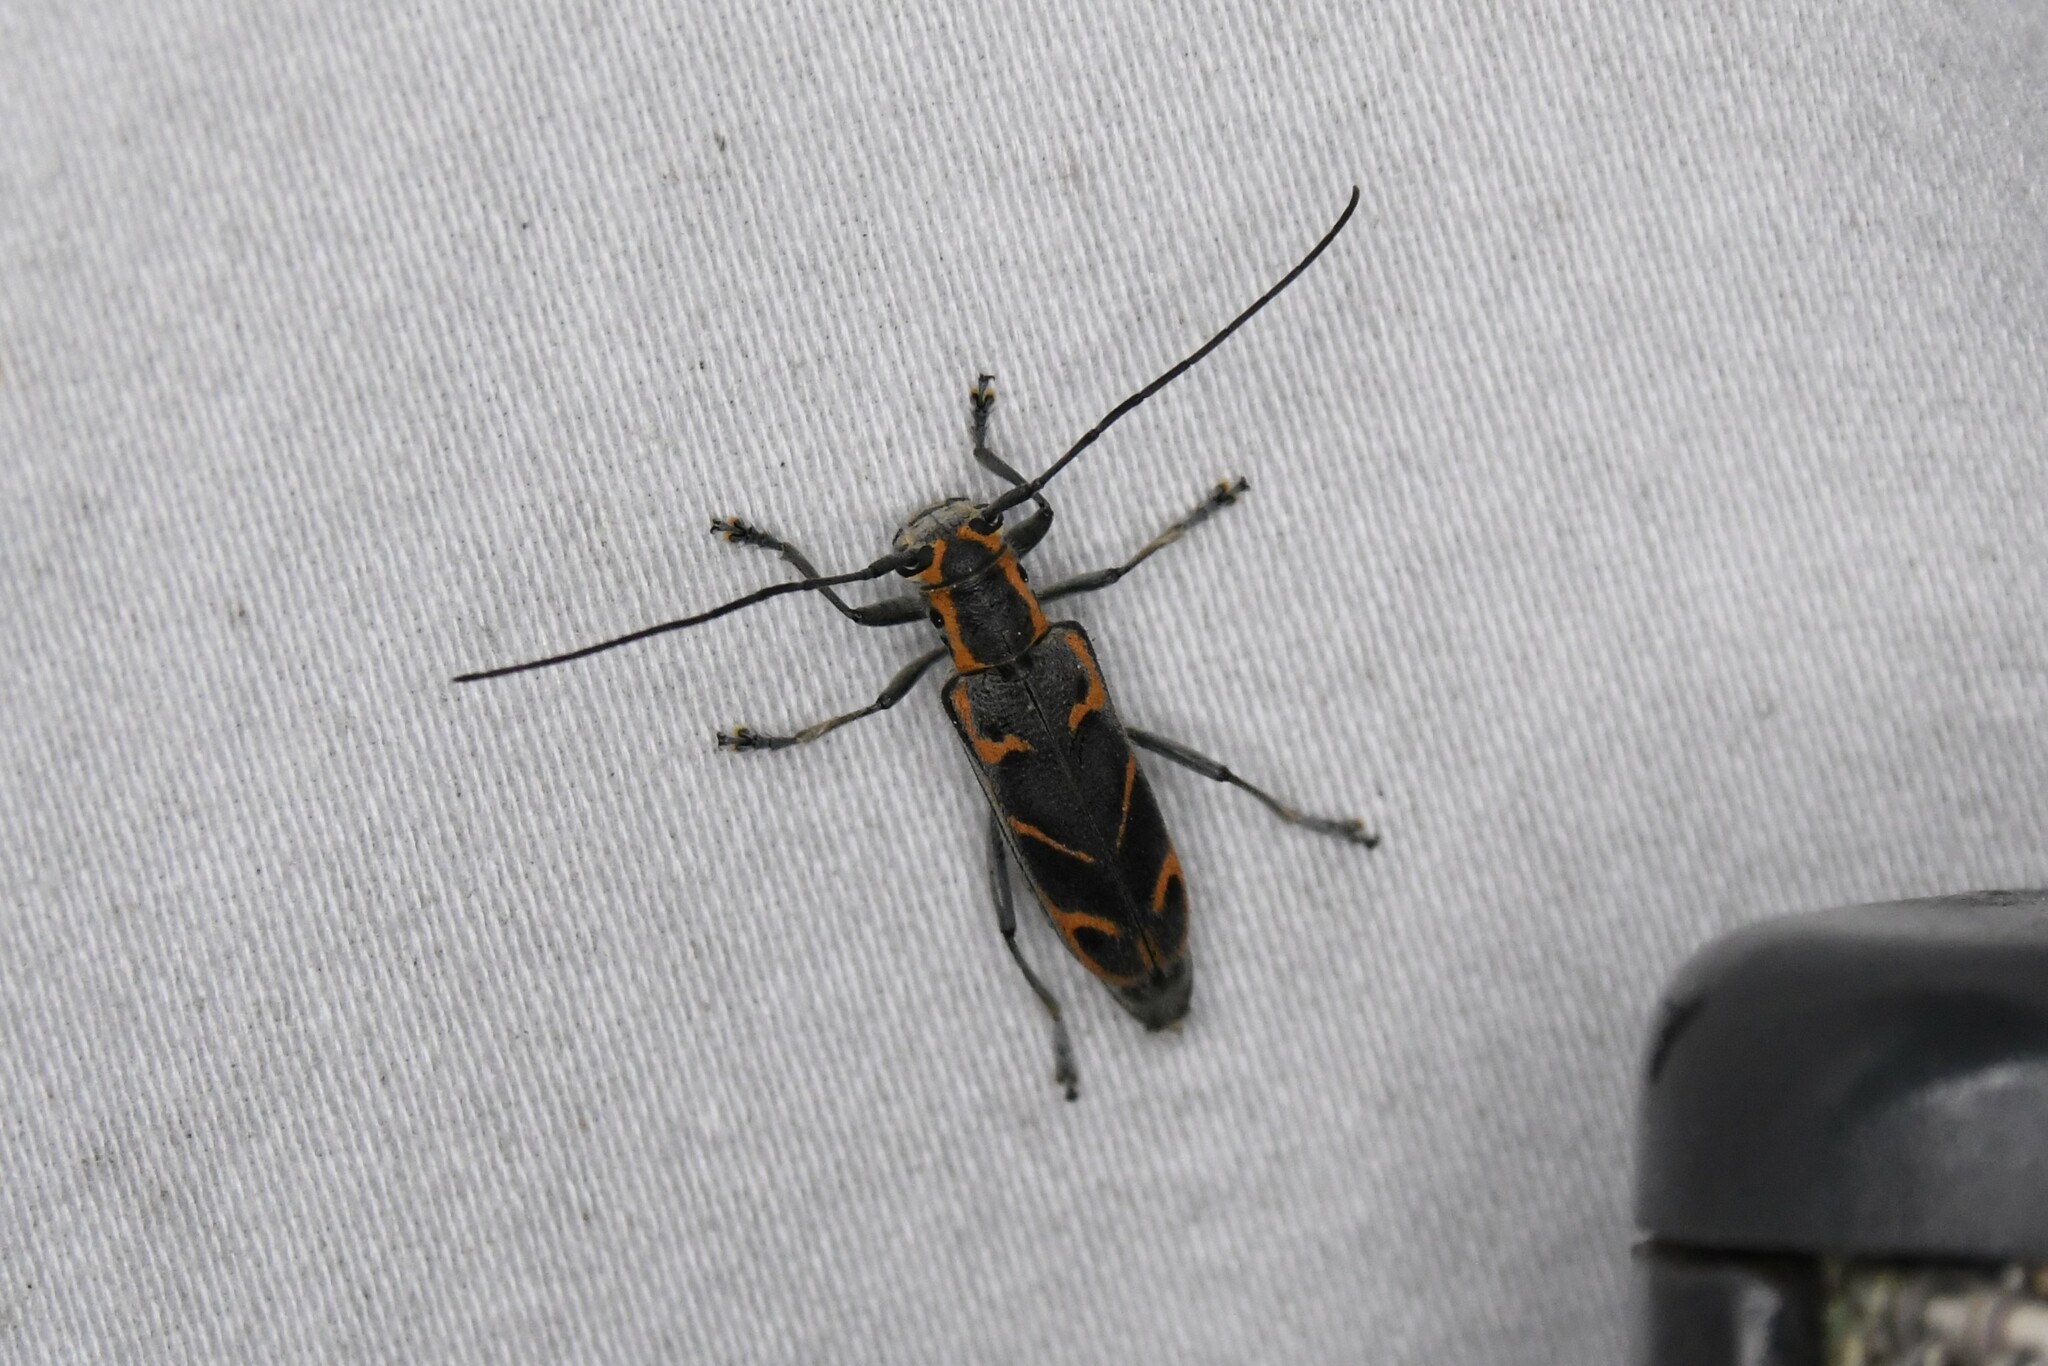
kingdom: Animalia
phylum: Arthropoda
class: Insecta
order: Coleoptera
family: Cerambycidae
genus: Saperda
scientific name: Saperda tridentata
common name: Elm borer
